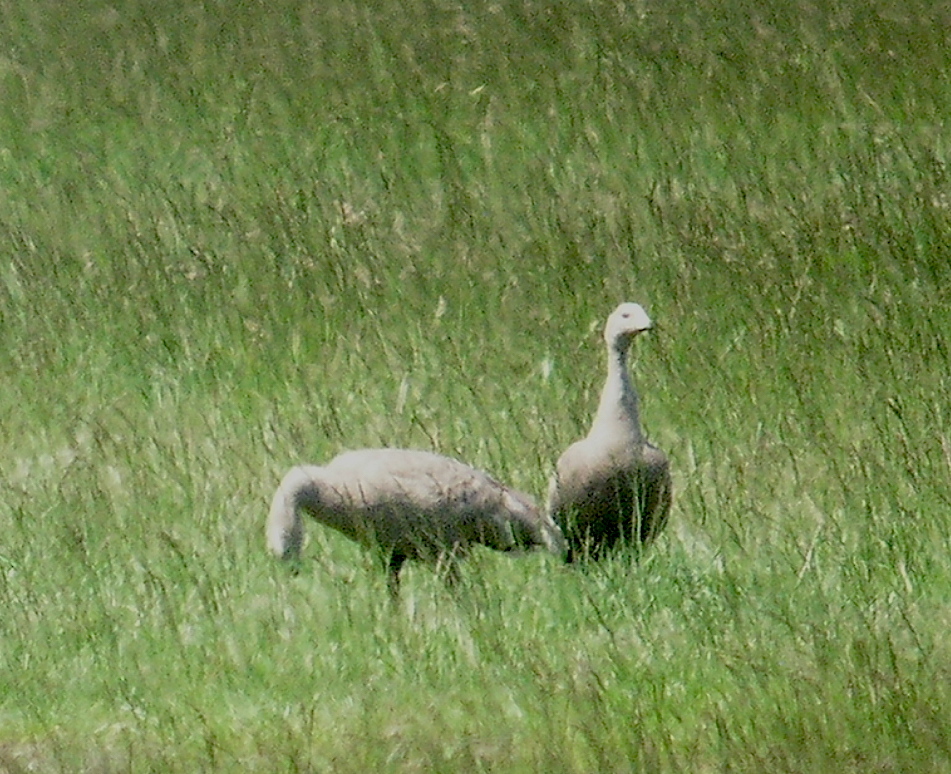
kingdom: Animalia
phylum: Chordata
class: Aves
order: Anseriformes
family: Anatidae
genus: Cereopsis
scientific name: Cereopsis novaehollandiae
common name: Cape barren goose
